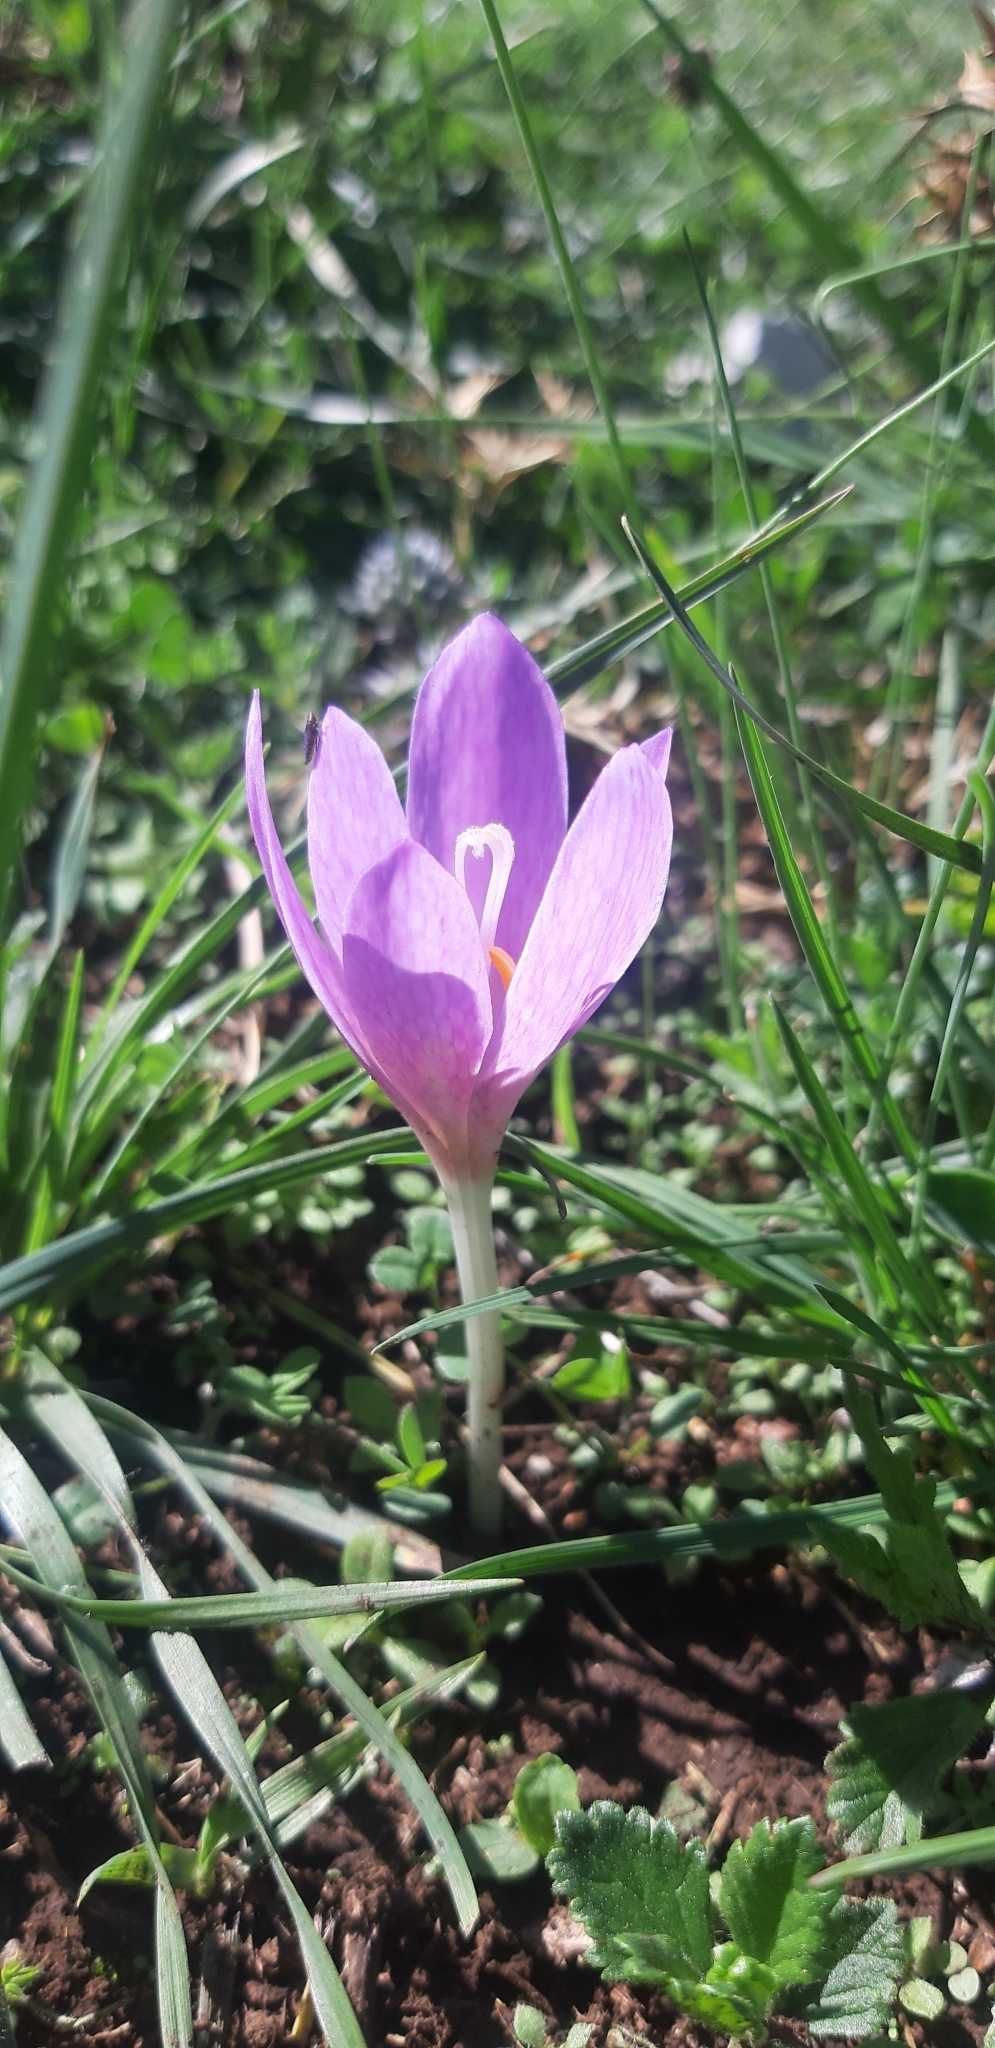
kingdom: Plantae
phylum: Tracheophyta
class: Liliopsida
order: Liliales
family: Colchicaceae
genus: Colchicum
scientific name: Colchicum lusitanum
